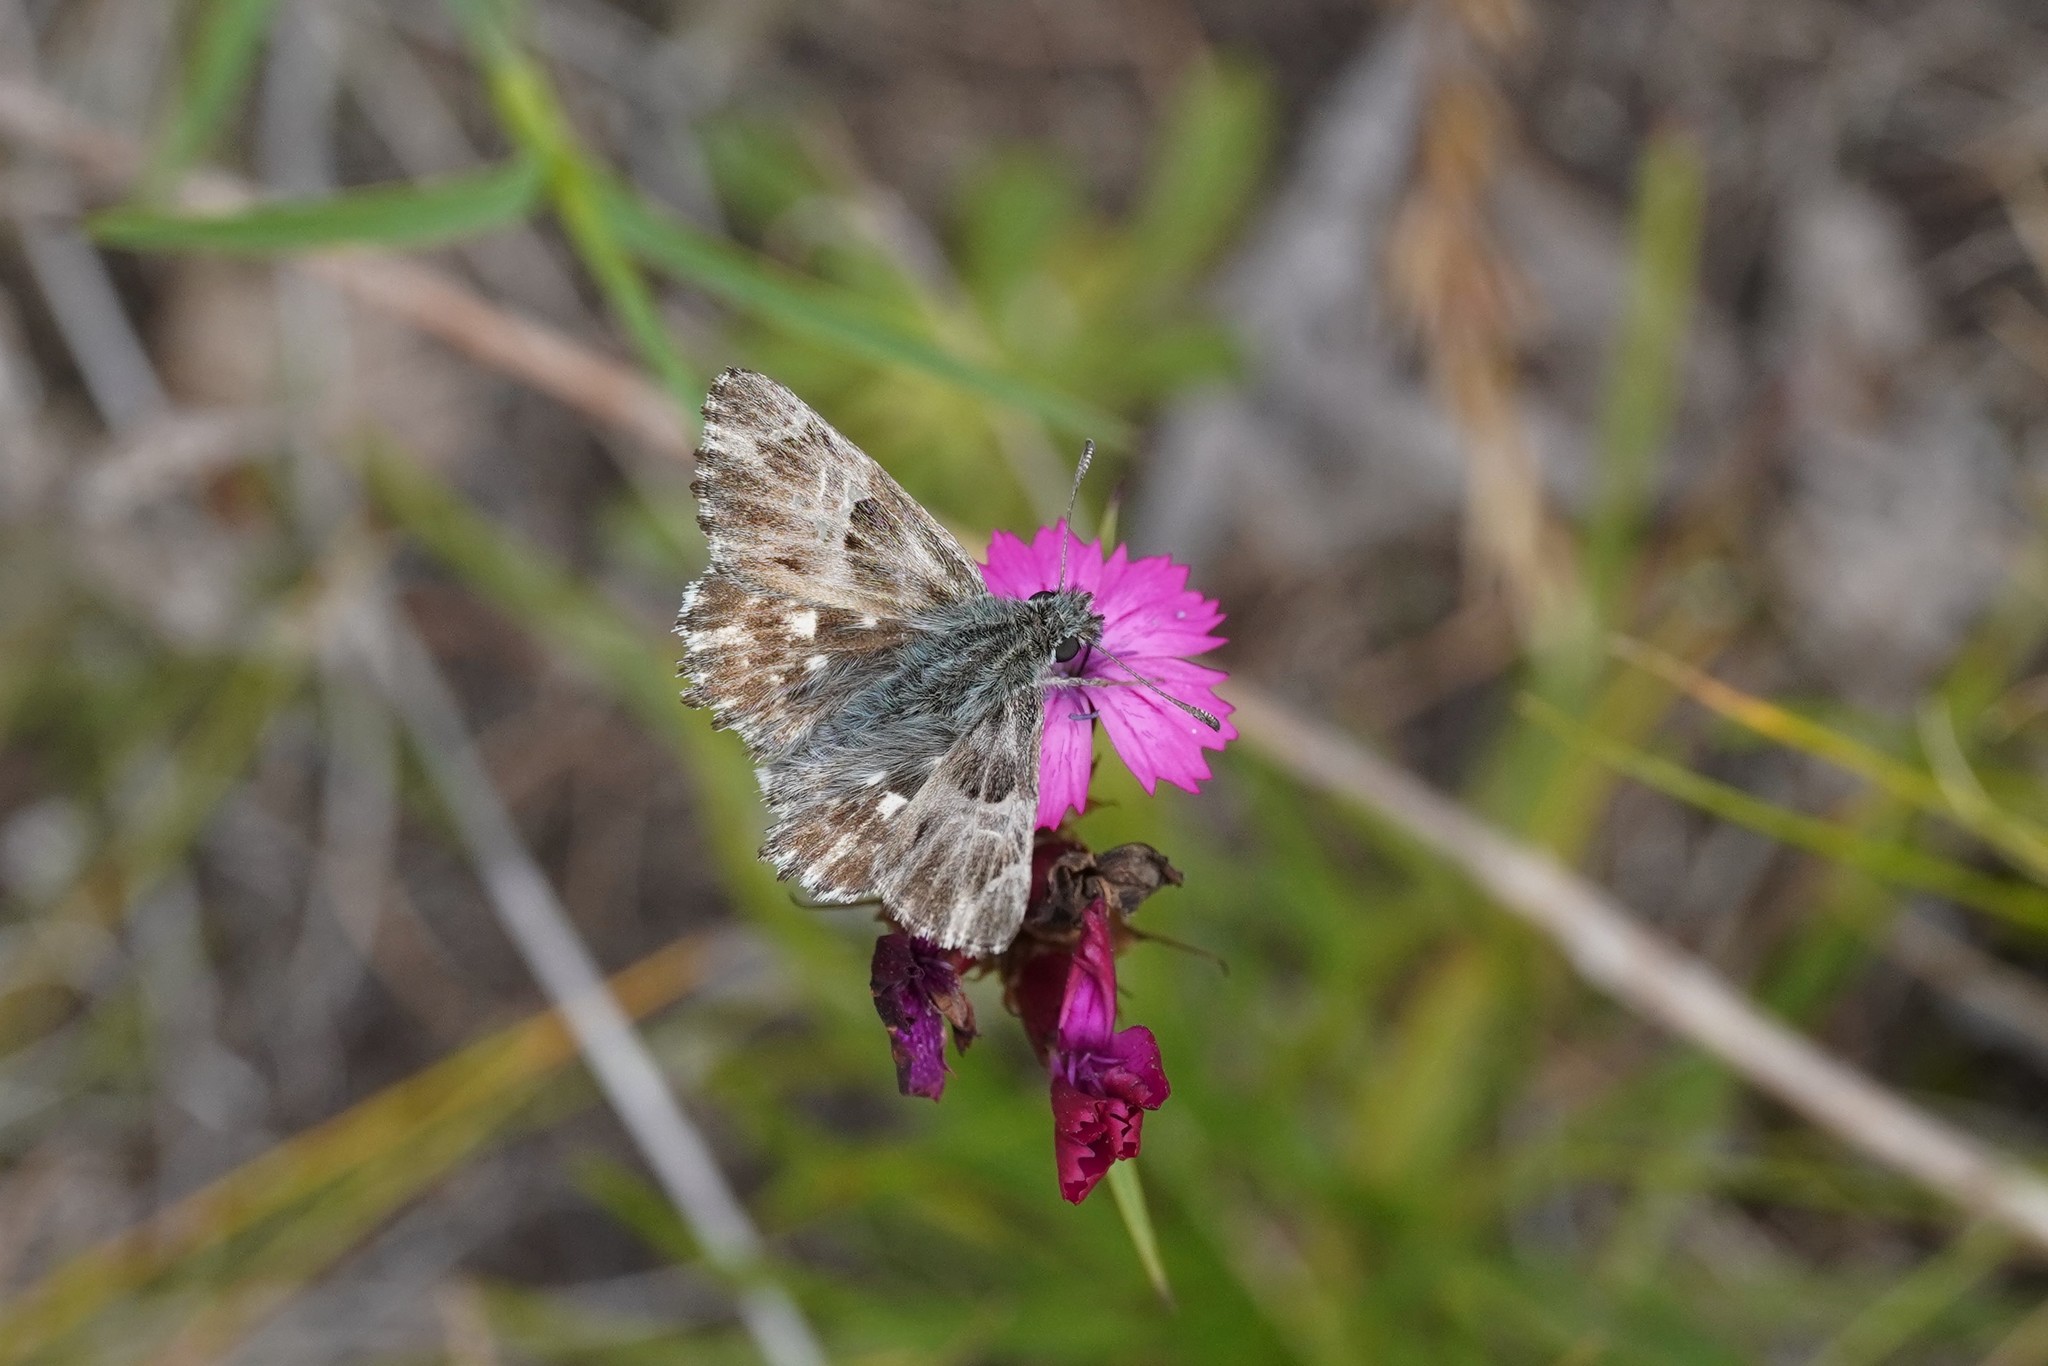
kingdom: Animalia
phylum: Arthropoda
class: Insecta
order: Lepidoptera
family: Hesperiidae
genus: Carcharodus
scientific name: Carcharodus floccifera
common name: Tufted marbled skipper
